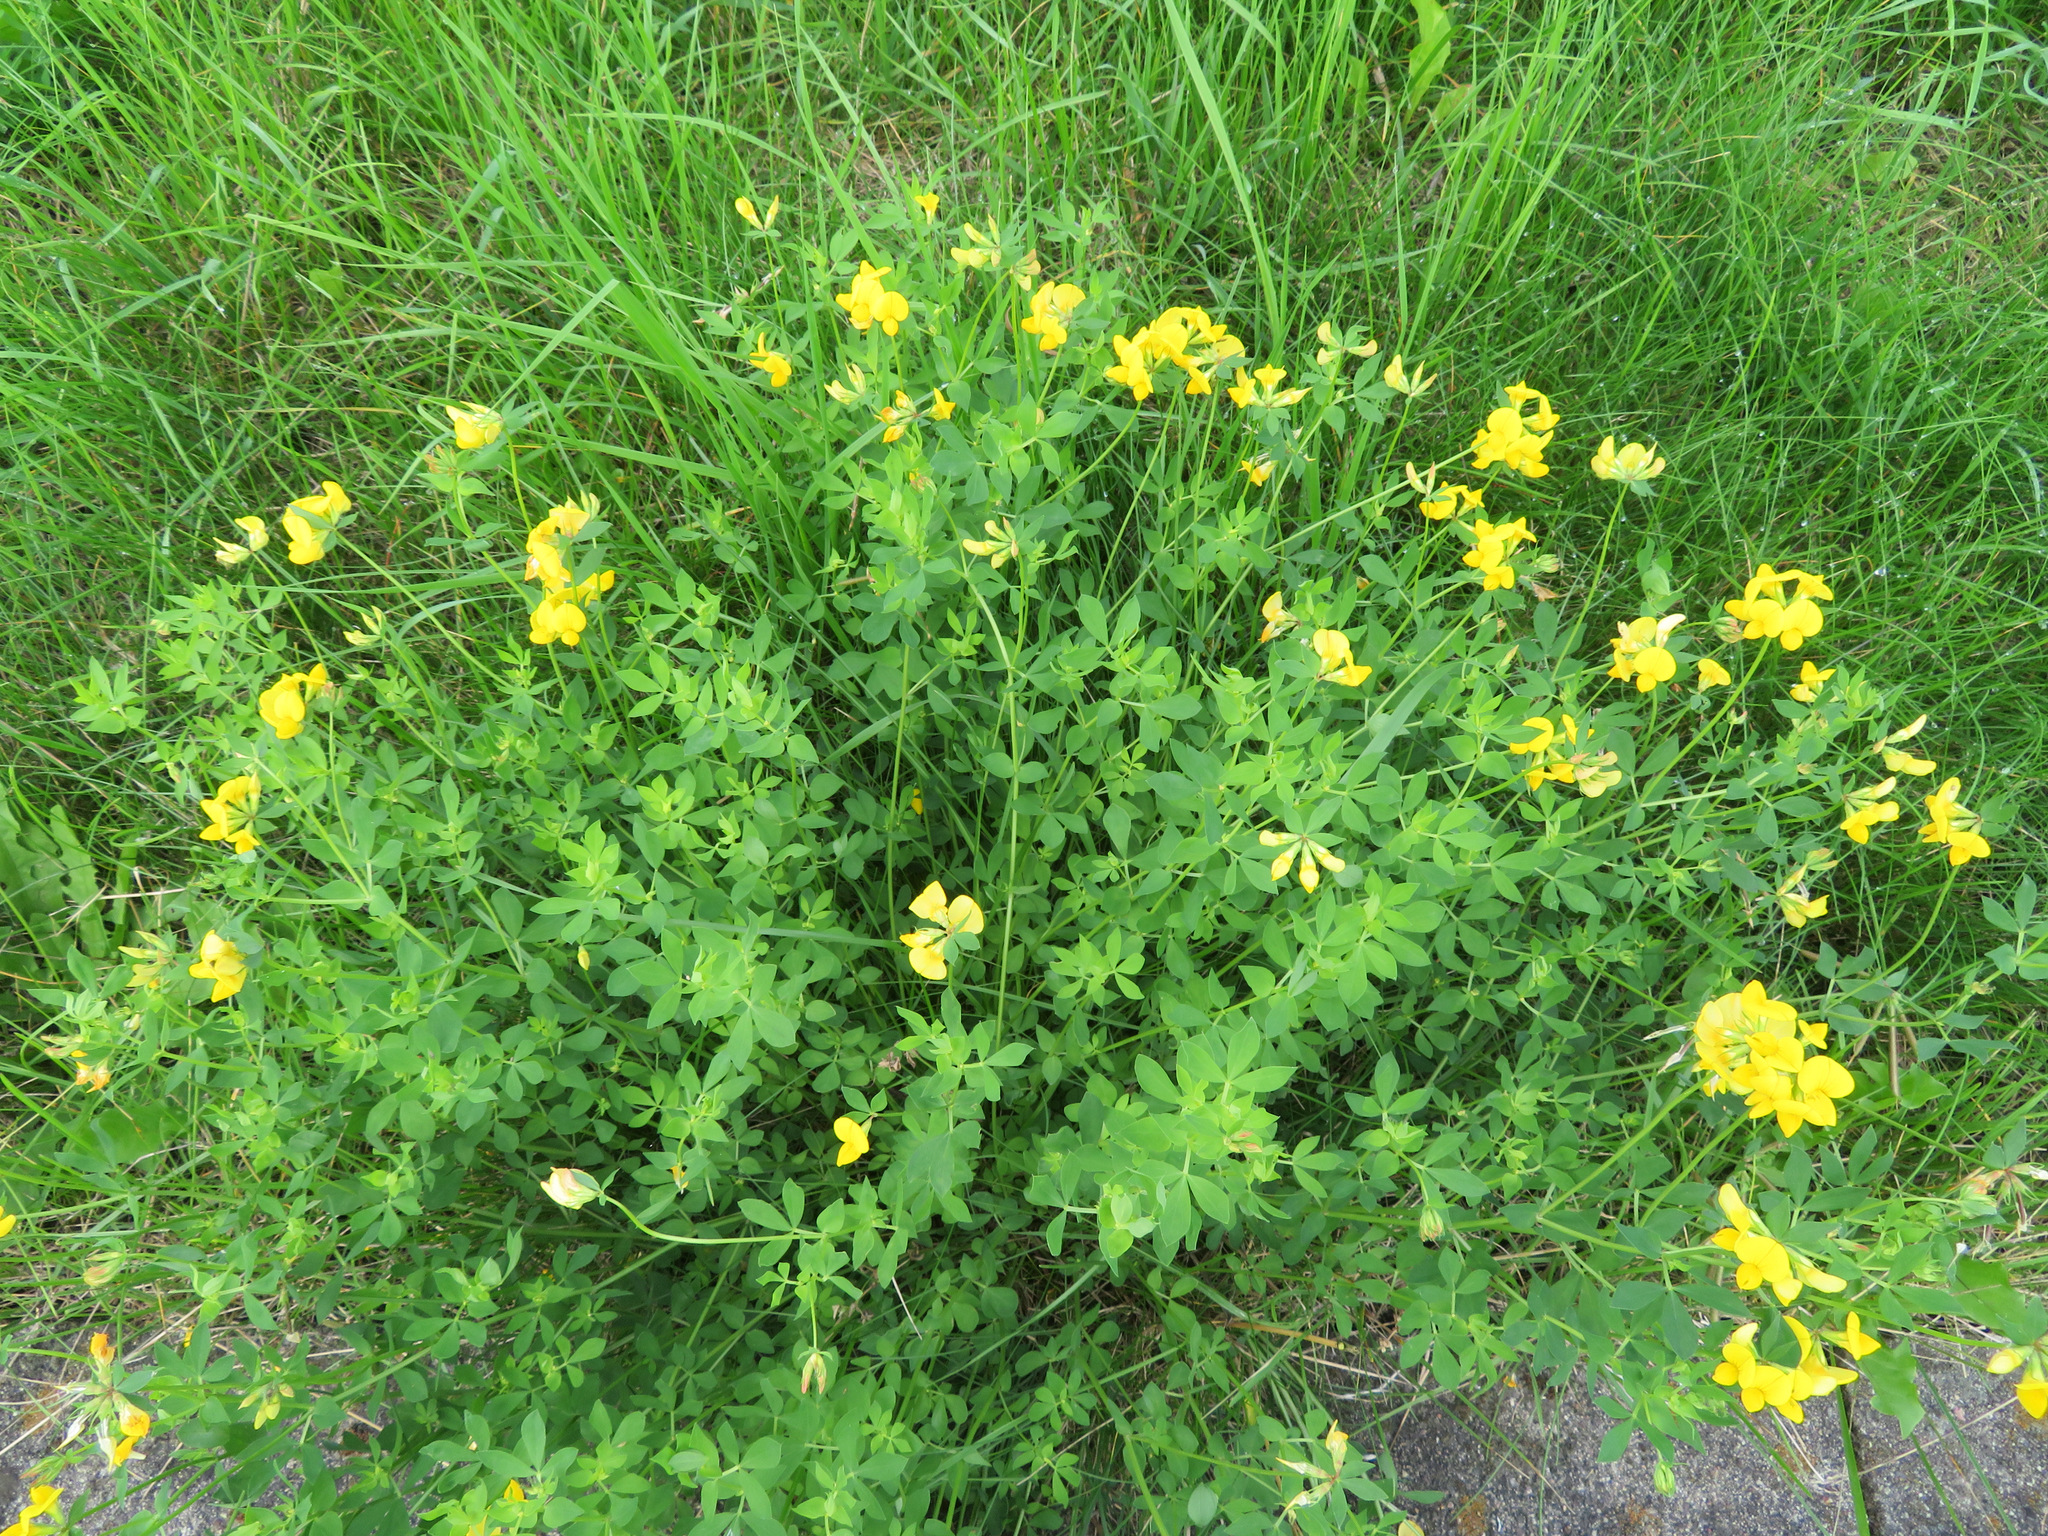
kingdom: Plantae
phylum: Tracheophyta
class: Magnoliopsida
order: Fabales
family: Fabaceae
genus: Lotus
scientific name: Lotus corniculatus
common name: Common bird's-foot-trefoil
